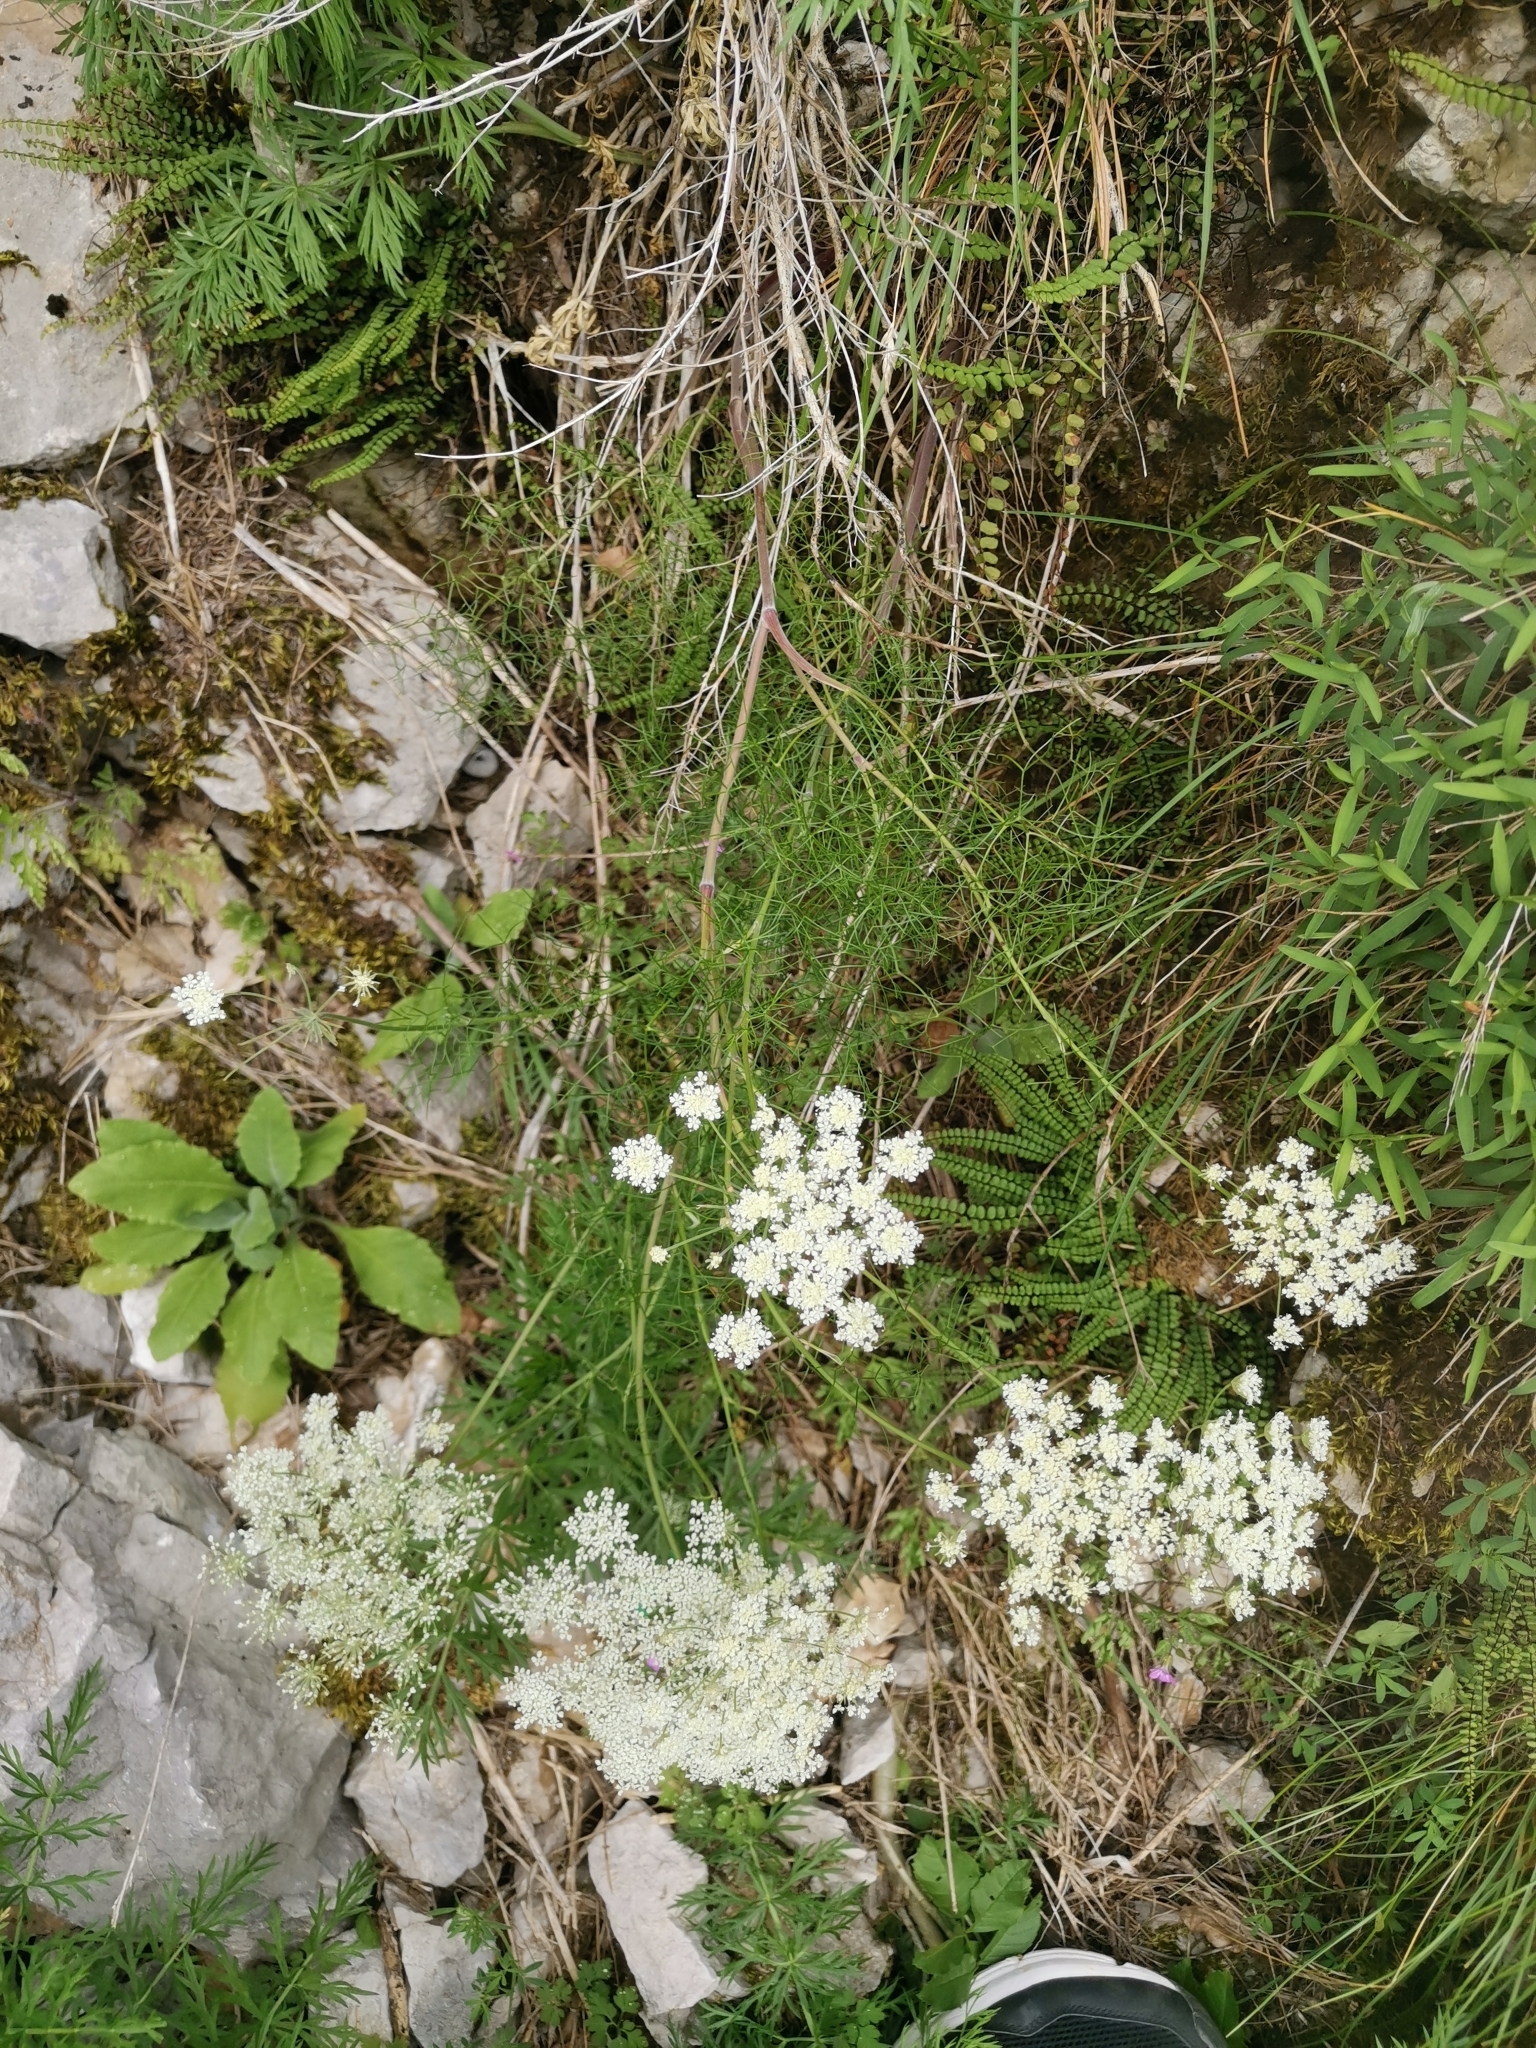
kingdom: Plantae
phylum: Tracheophyta
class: Magnoliopsida
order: Apiales
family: Apiaceae
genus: Athamanta
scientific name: Athamanta turbith
